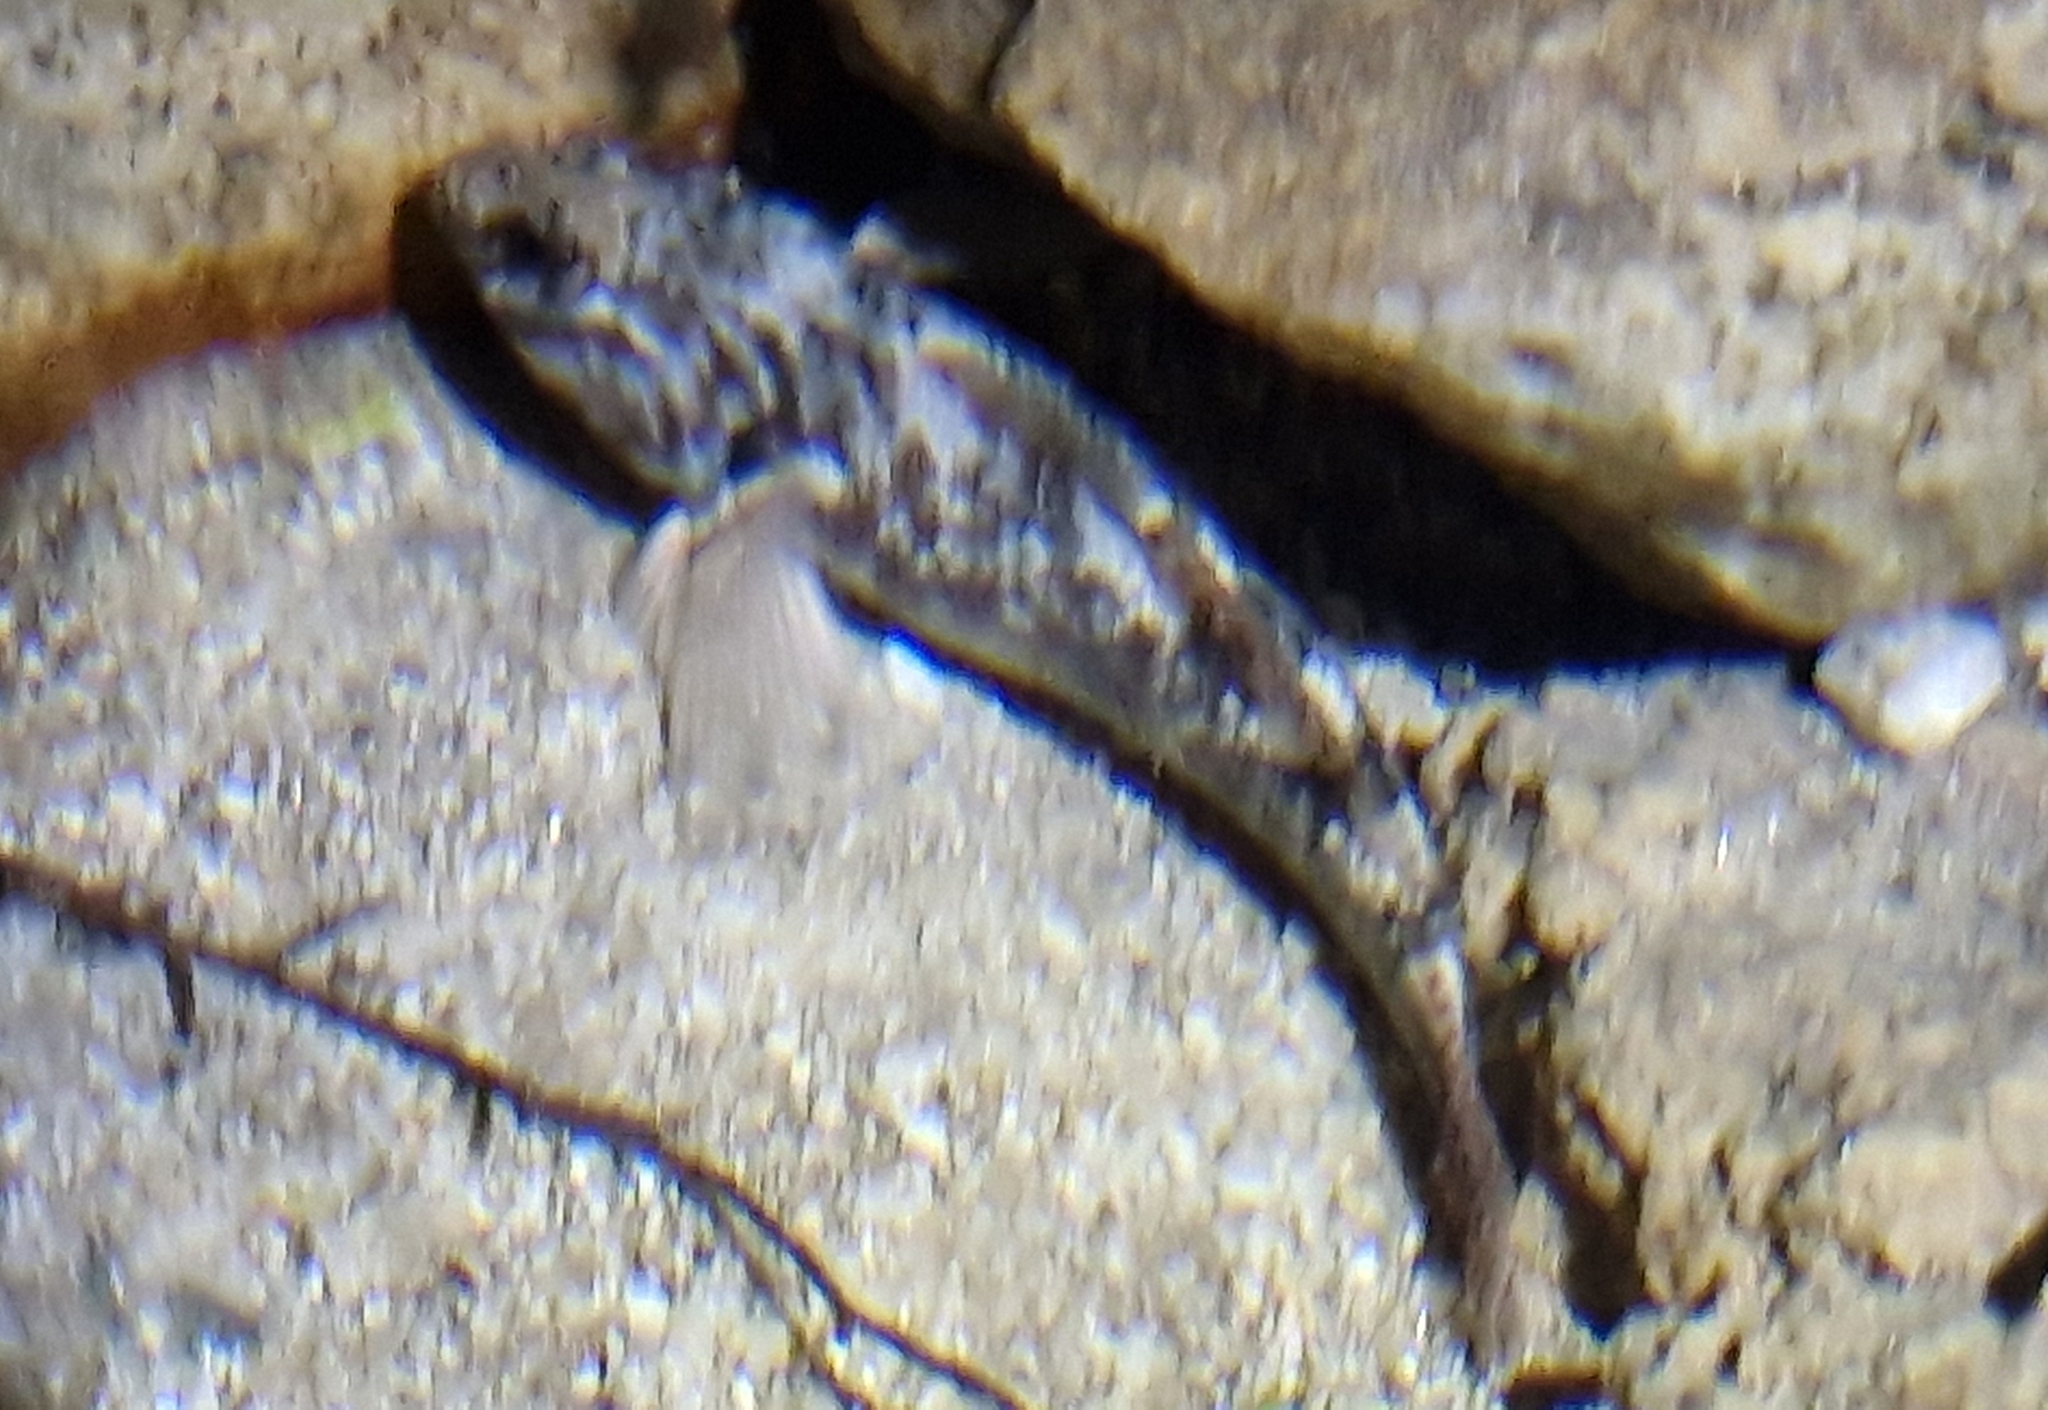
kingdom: Animalia
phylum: Chordata
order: Perciformes
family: Eleotridae
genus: Gobiomorphus
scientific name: Gobiomorphus huttoni
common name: Redfin bully
